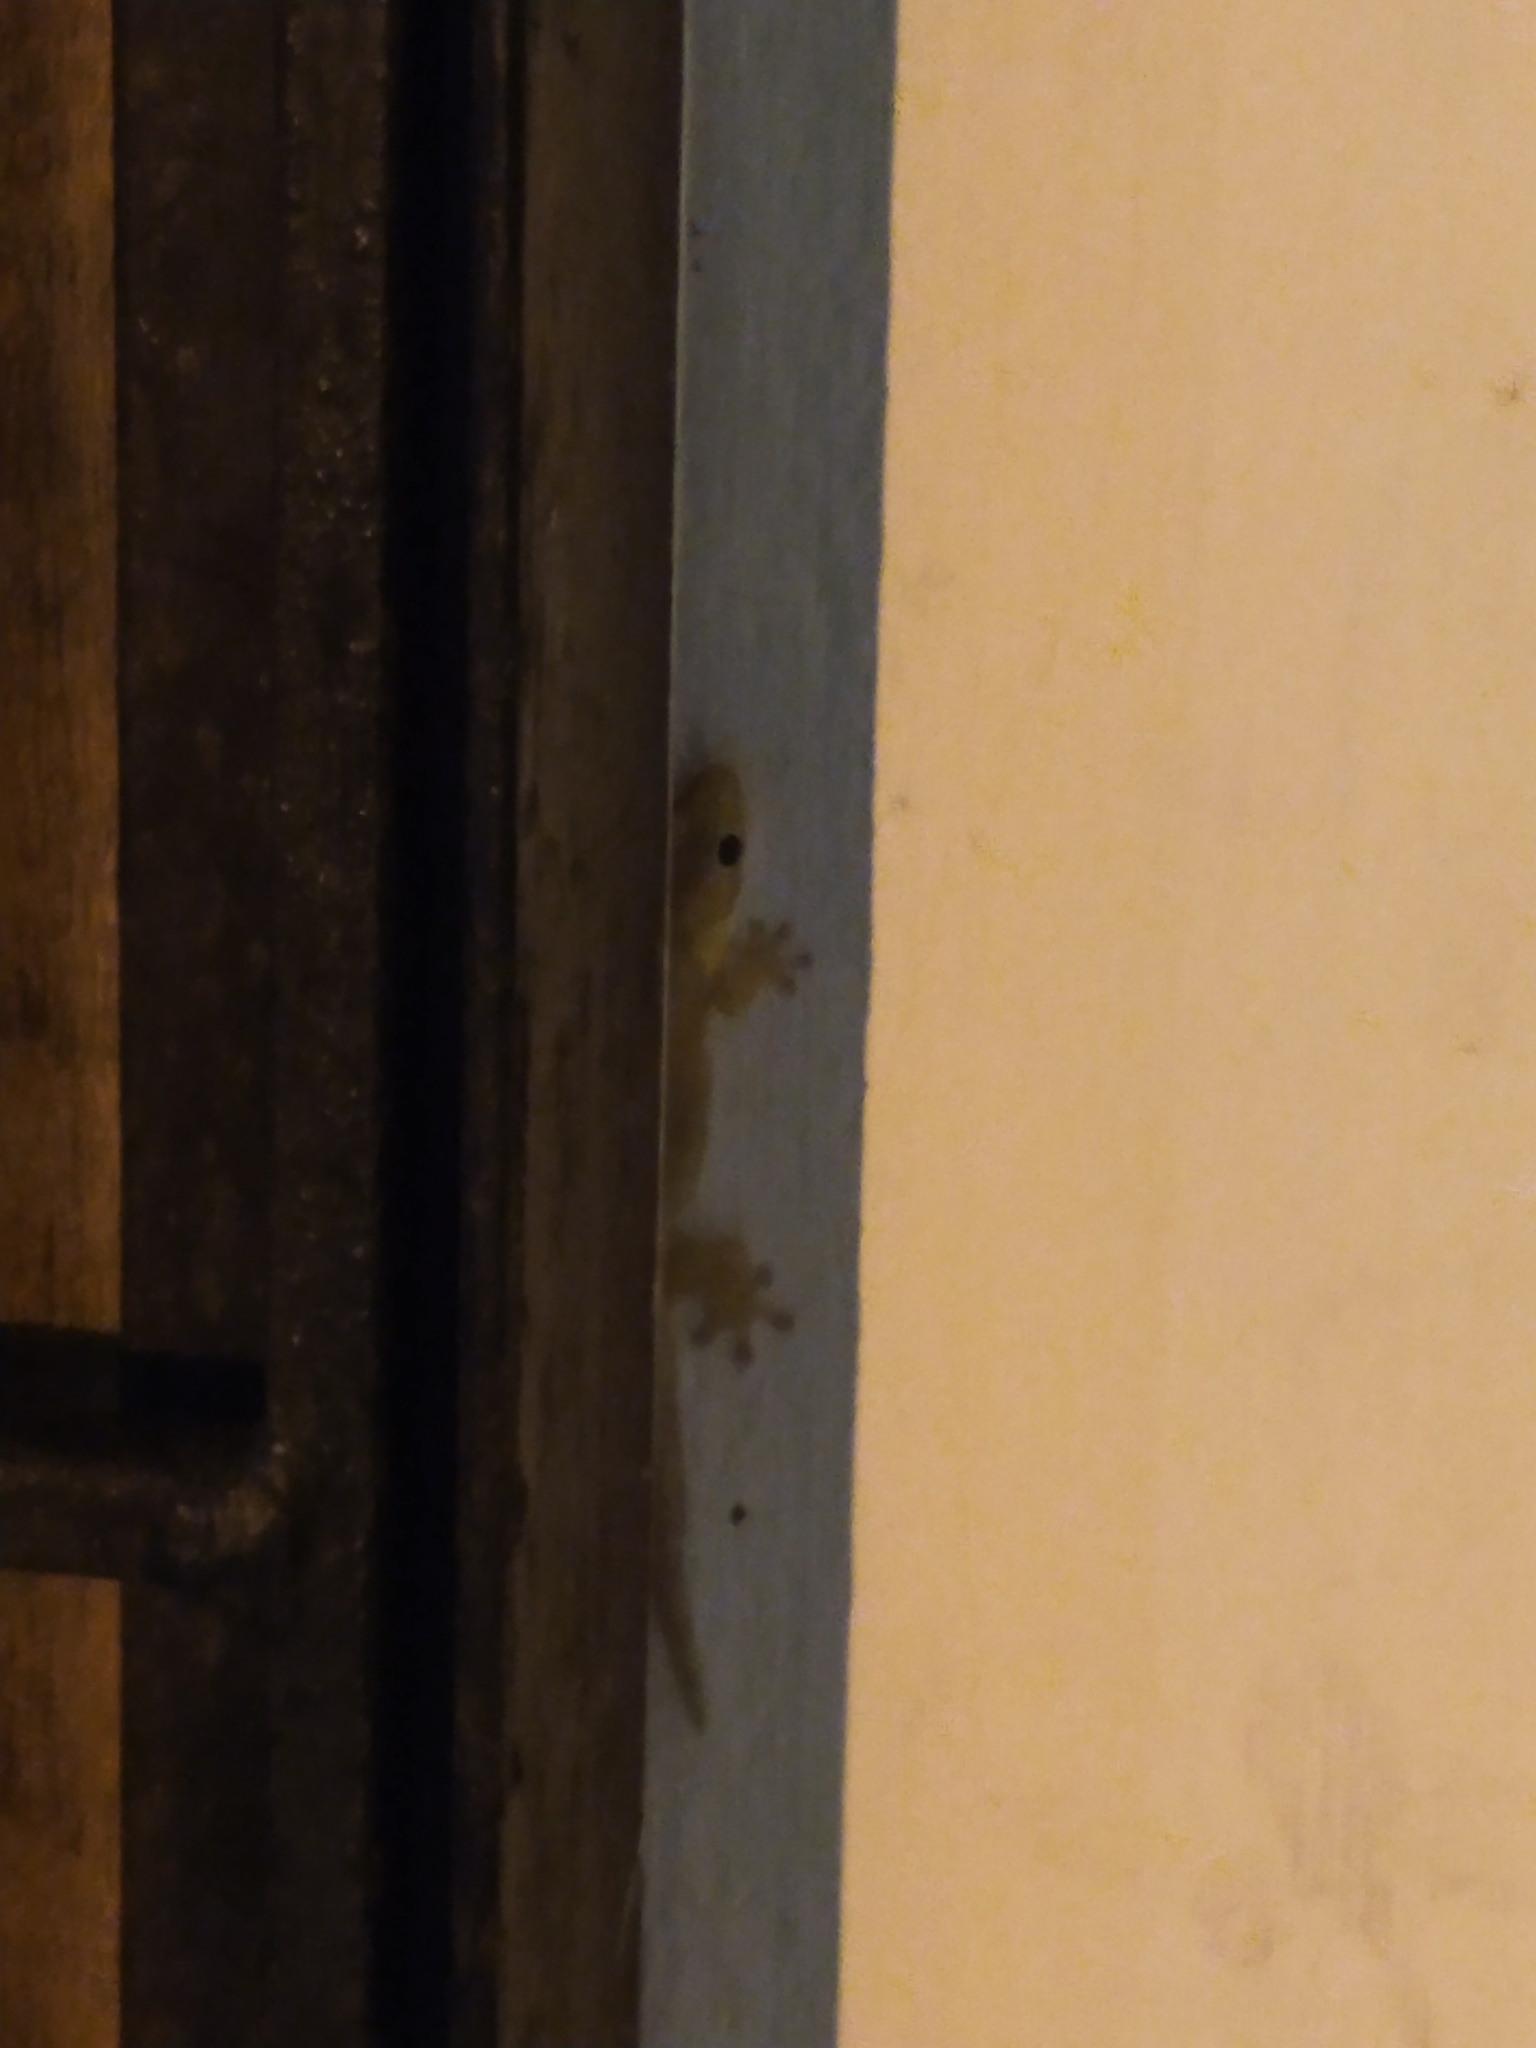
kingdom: Animalia
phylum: Chordata
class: Squamata
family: Gekkonidae
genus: Lepidodactylus
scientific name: Lepidodactylus lugubris
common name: Mourning gecko
